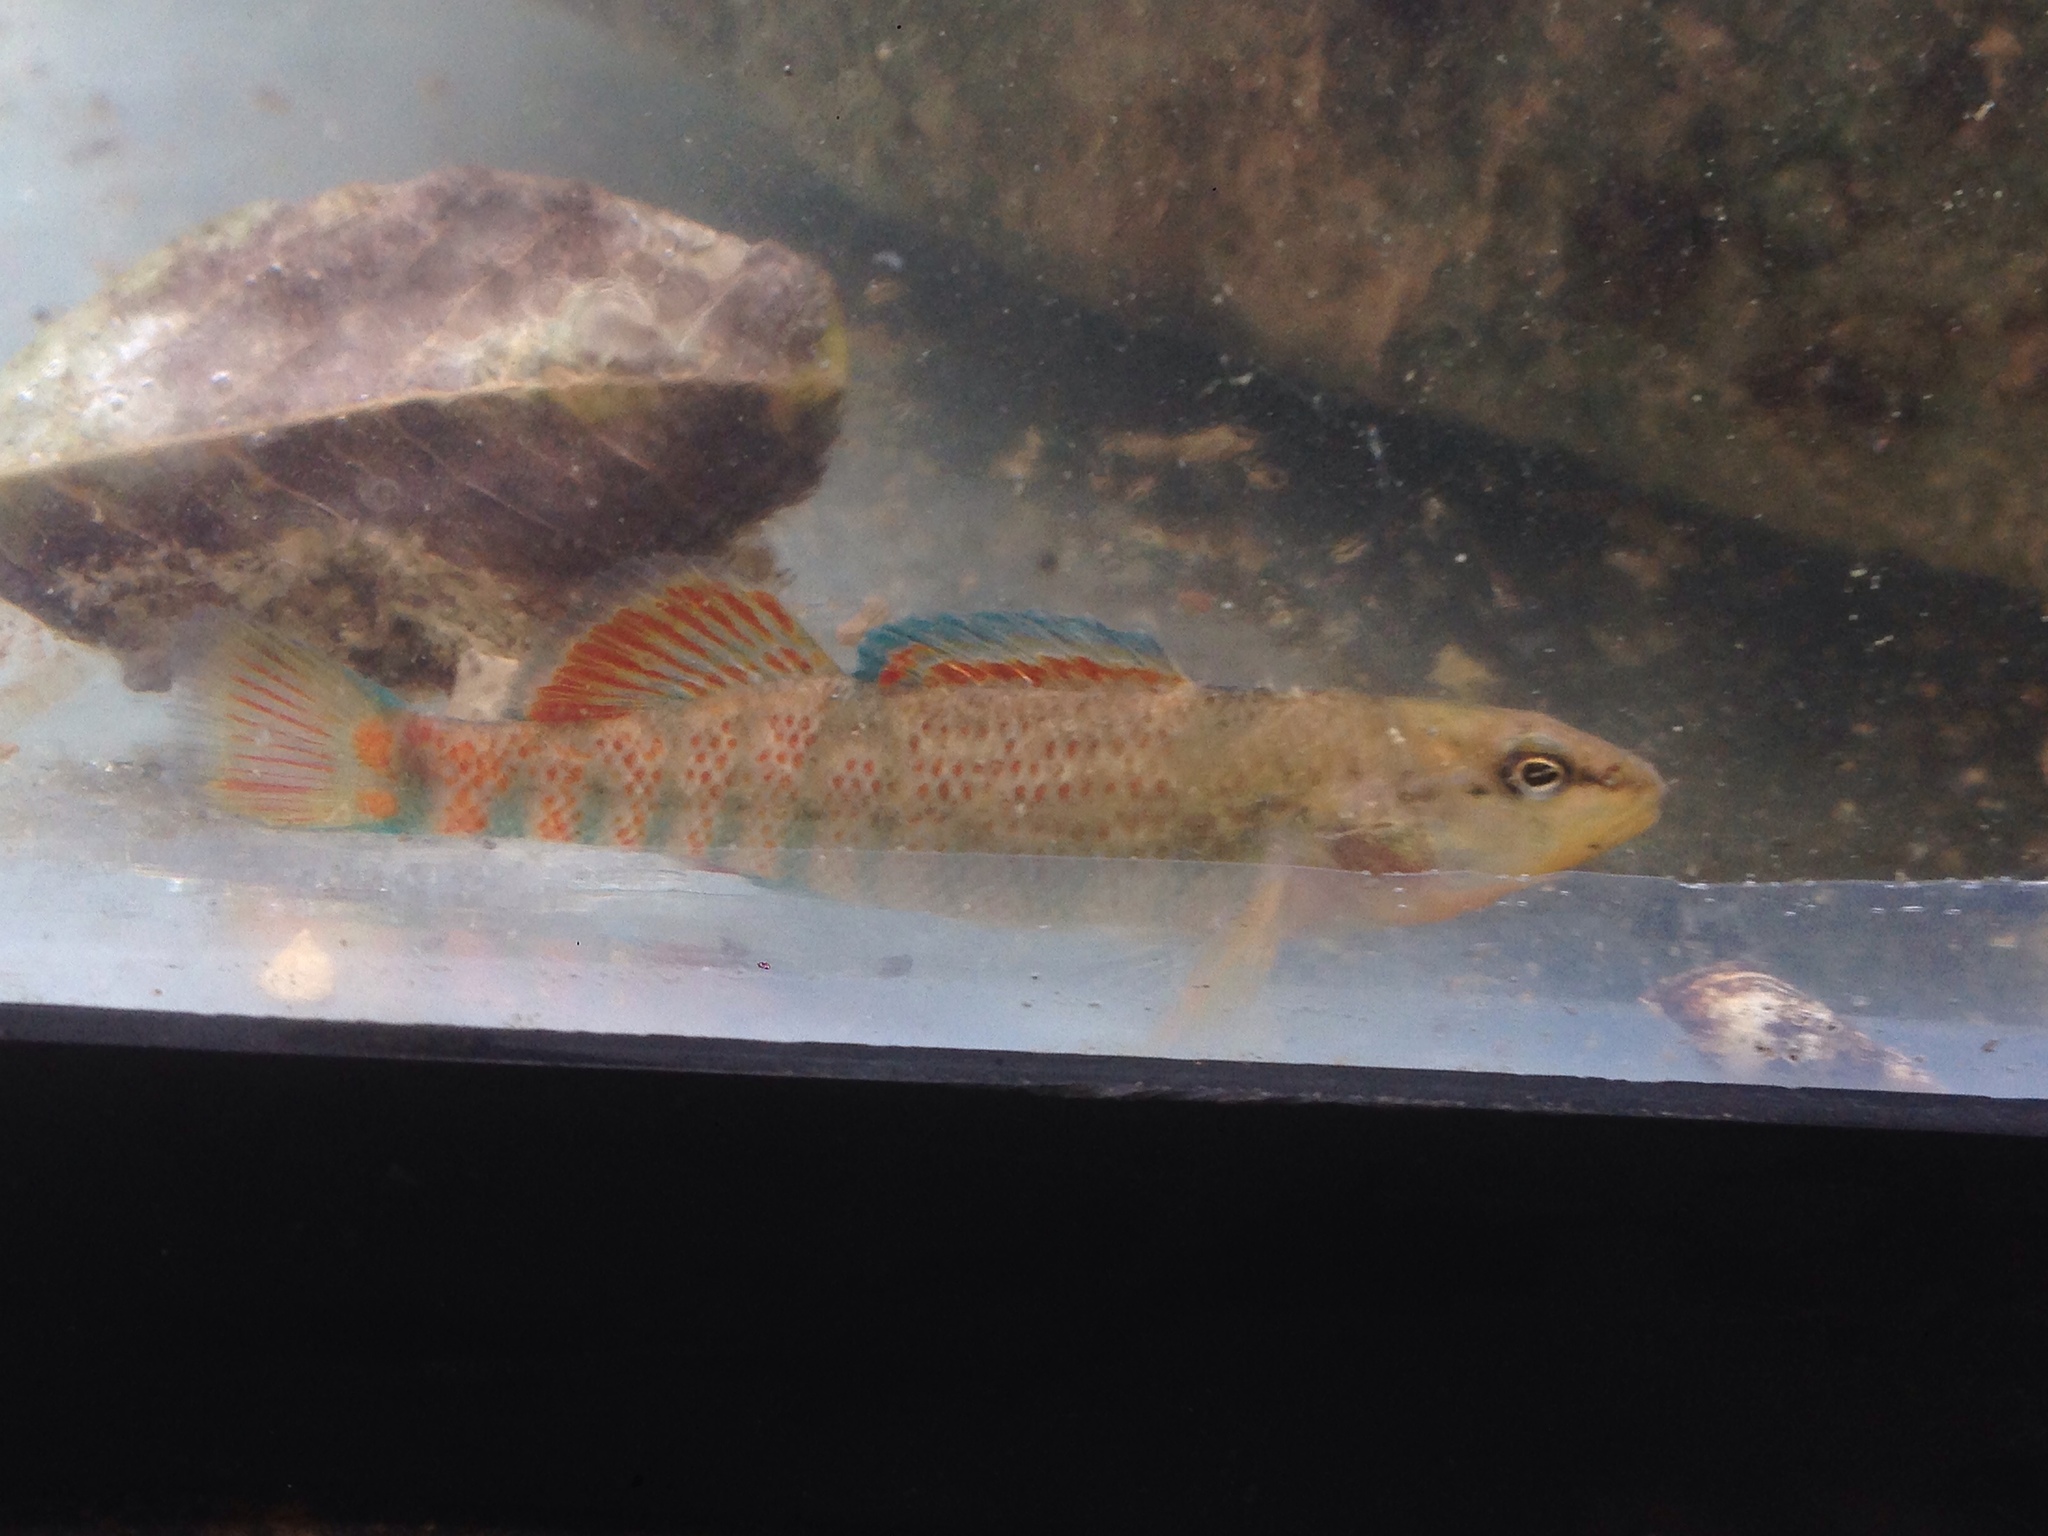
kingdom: Animalia
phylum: Chordata
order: Perciformes
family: Percidae
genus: Etheostoma
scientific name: Etheostoma caeruleum
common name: Rainbow darter
